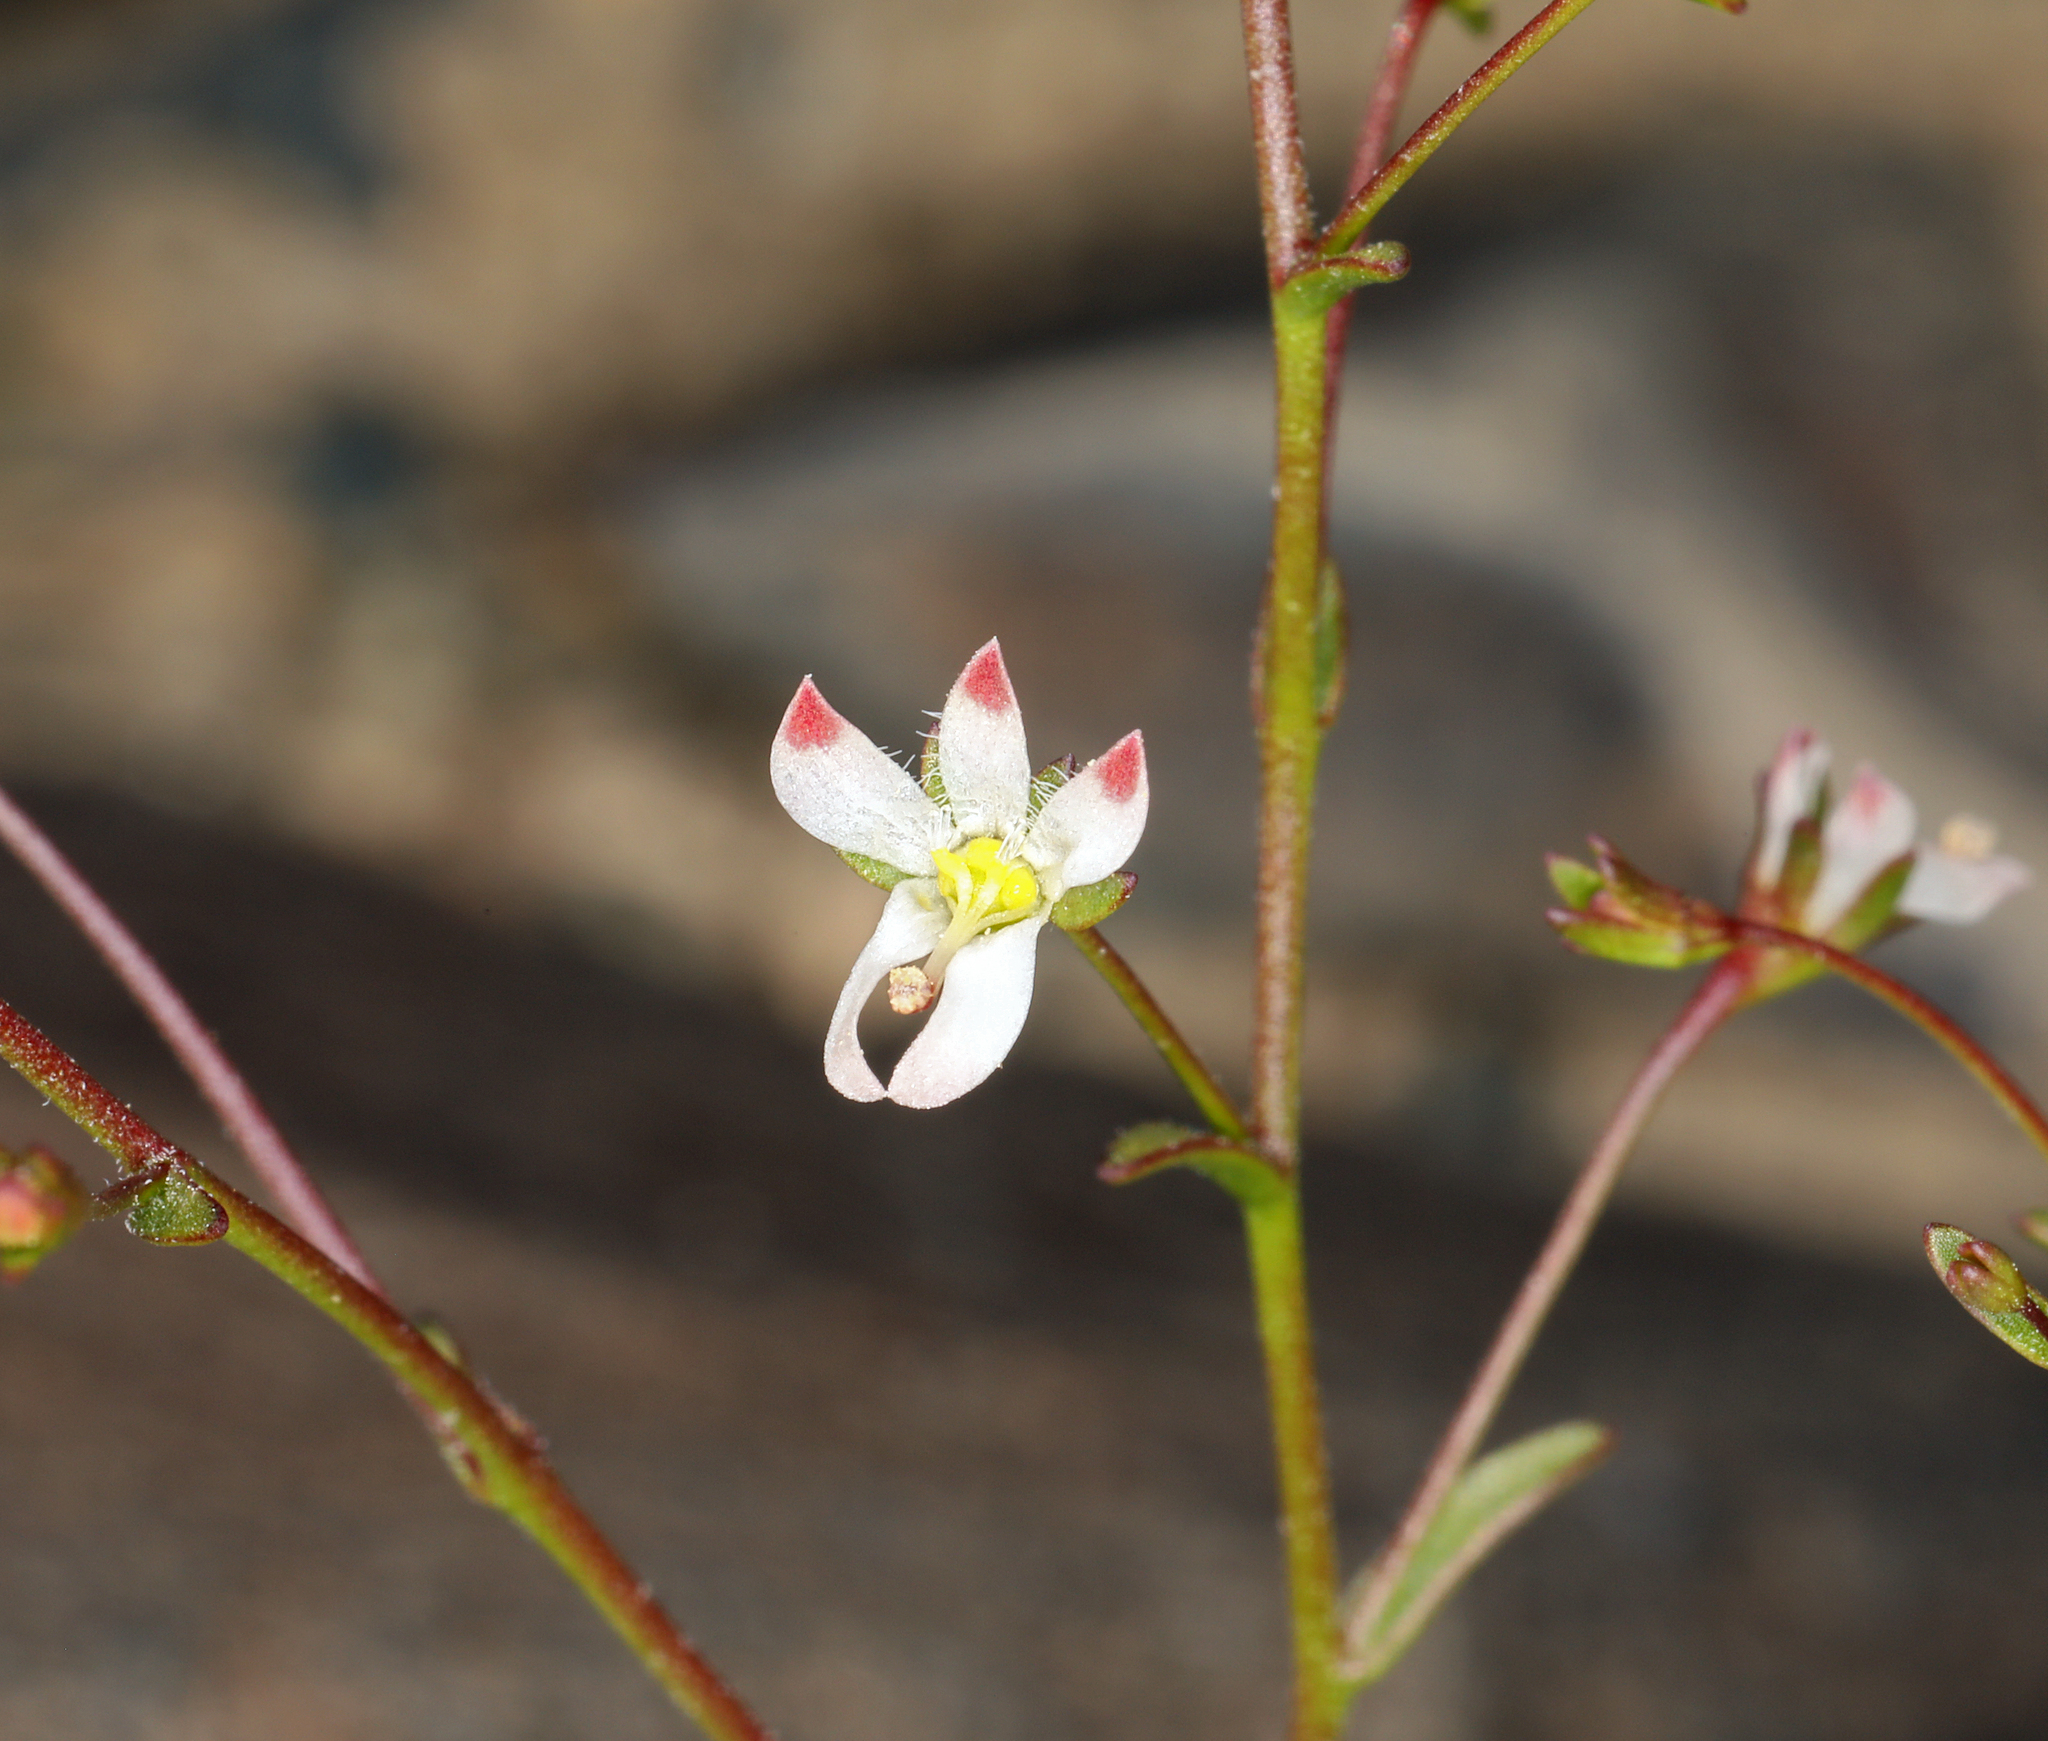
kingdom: Plantae
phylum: Tracheophyta
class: Magnoliopsida
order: Asterales
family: Campanulaceae
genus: Nemacladus
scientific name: Nemacladus orientalis
